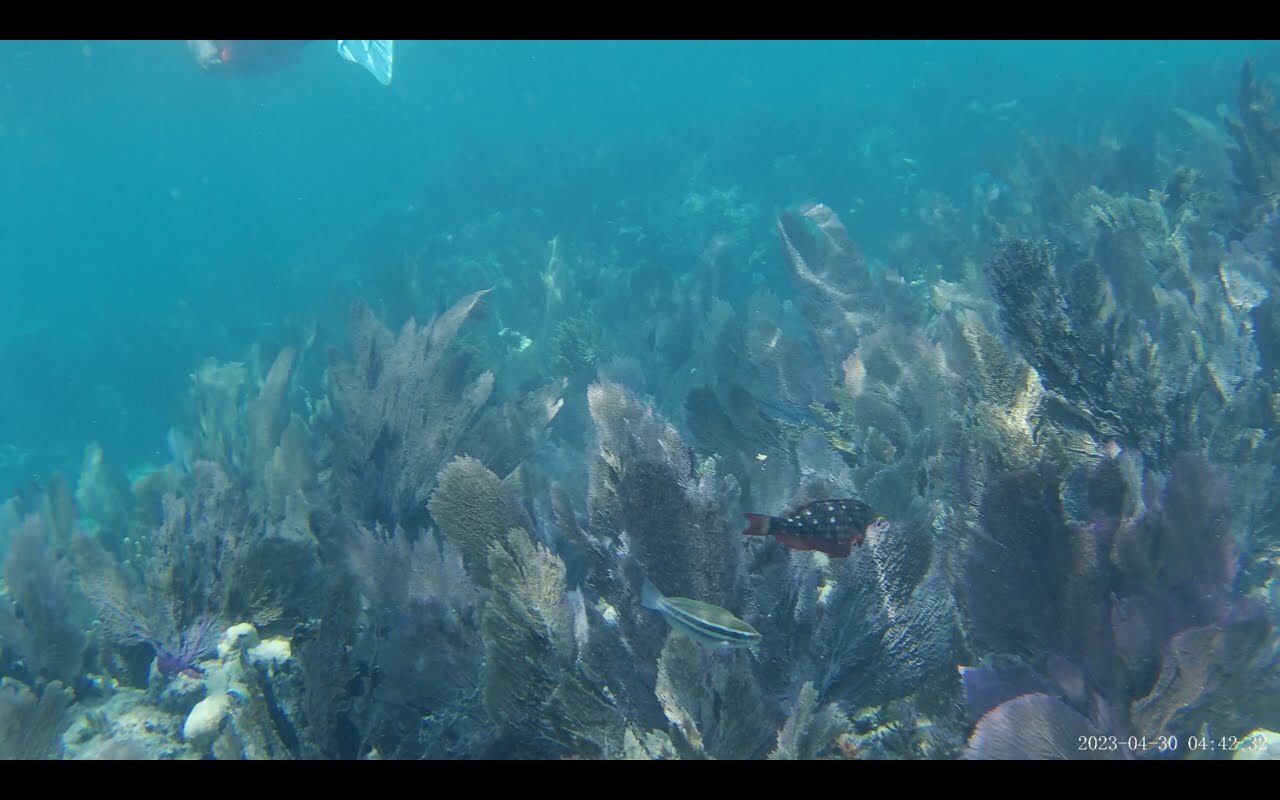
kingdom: Animalia
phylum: Chordata
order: Perciformes
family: Scaridae
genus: Scarus
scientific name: Scarus iseri
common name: Striped parrotfish
